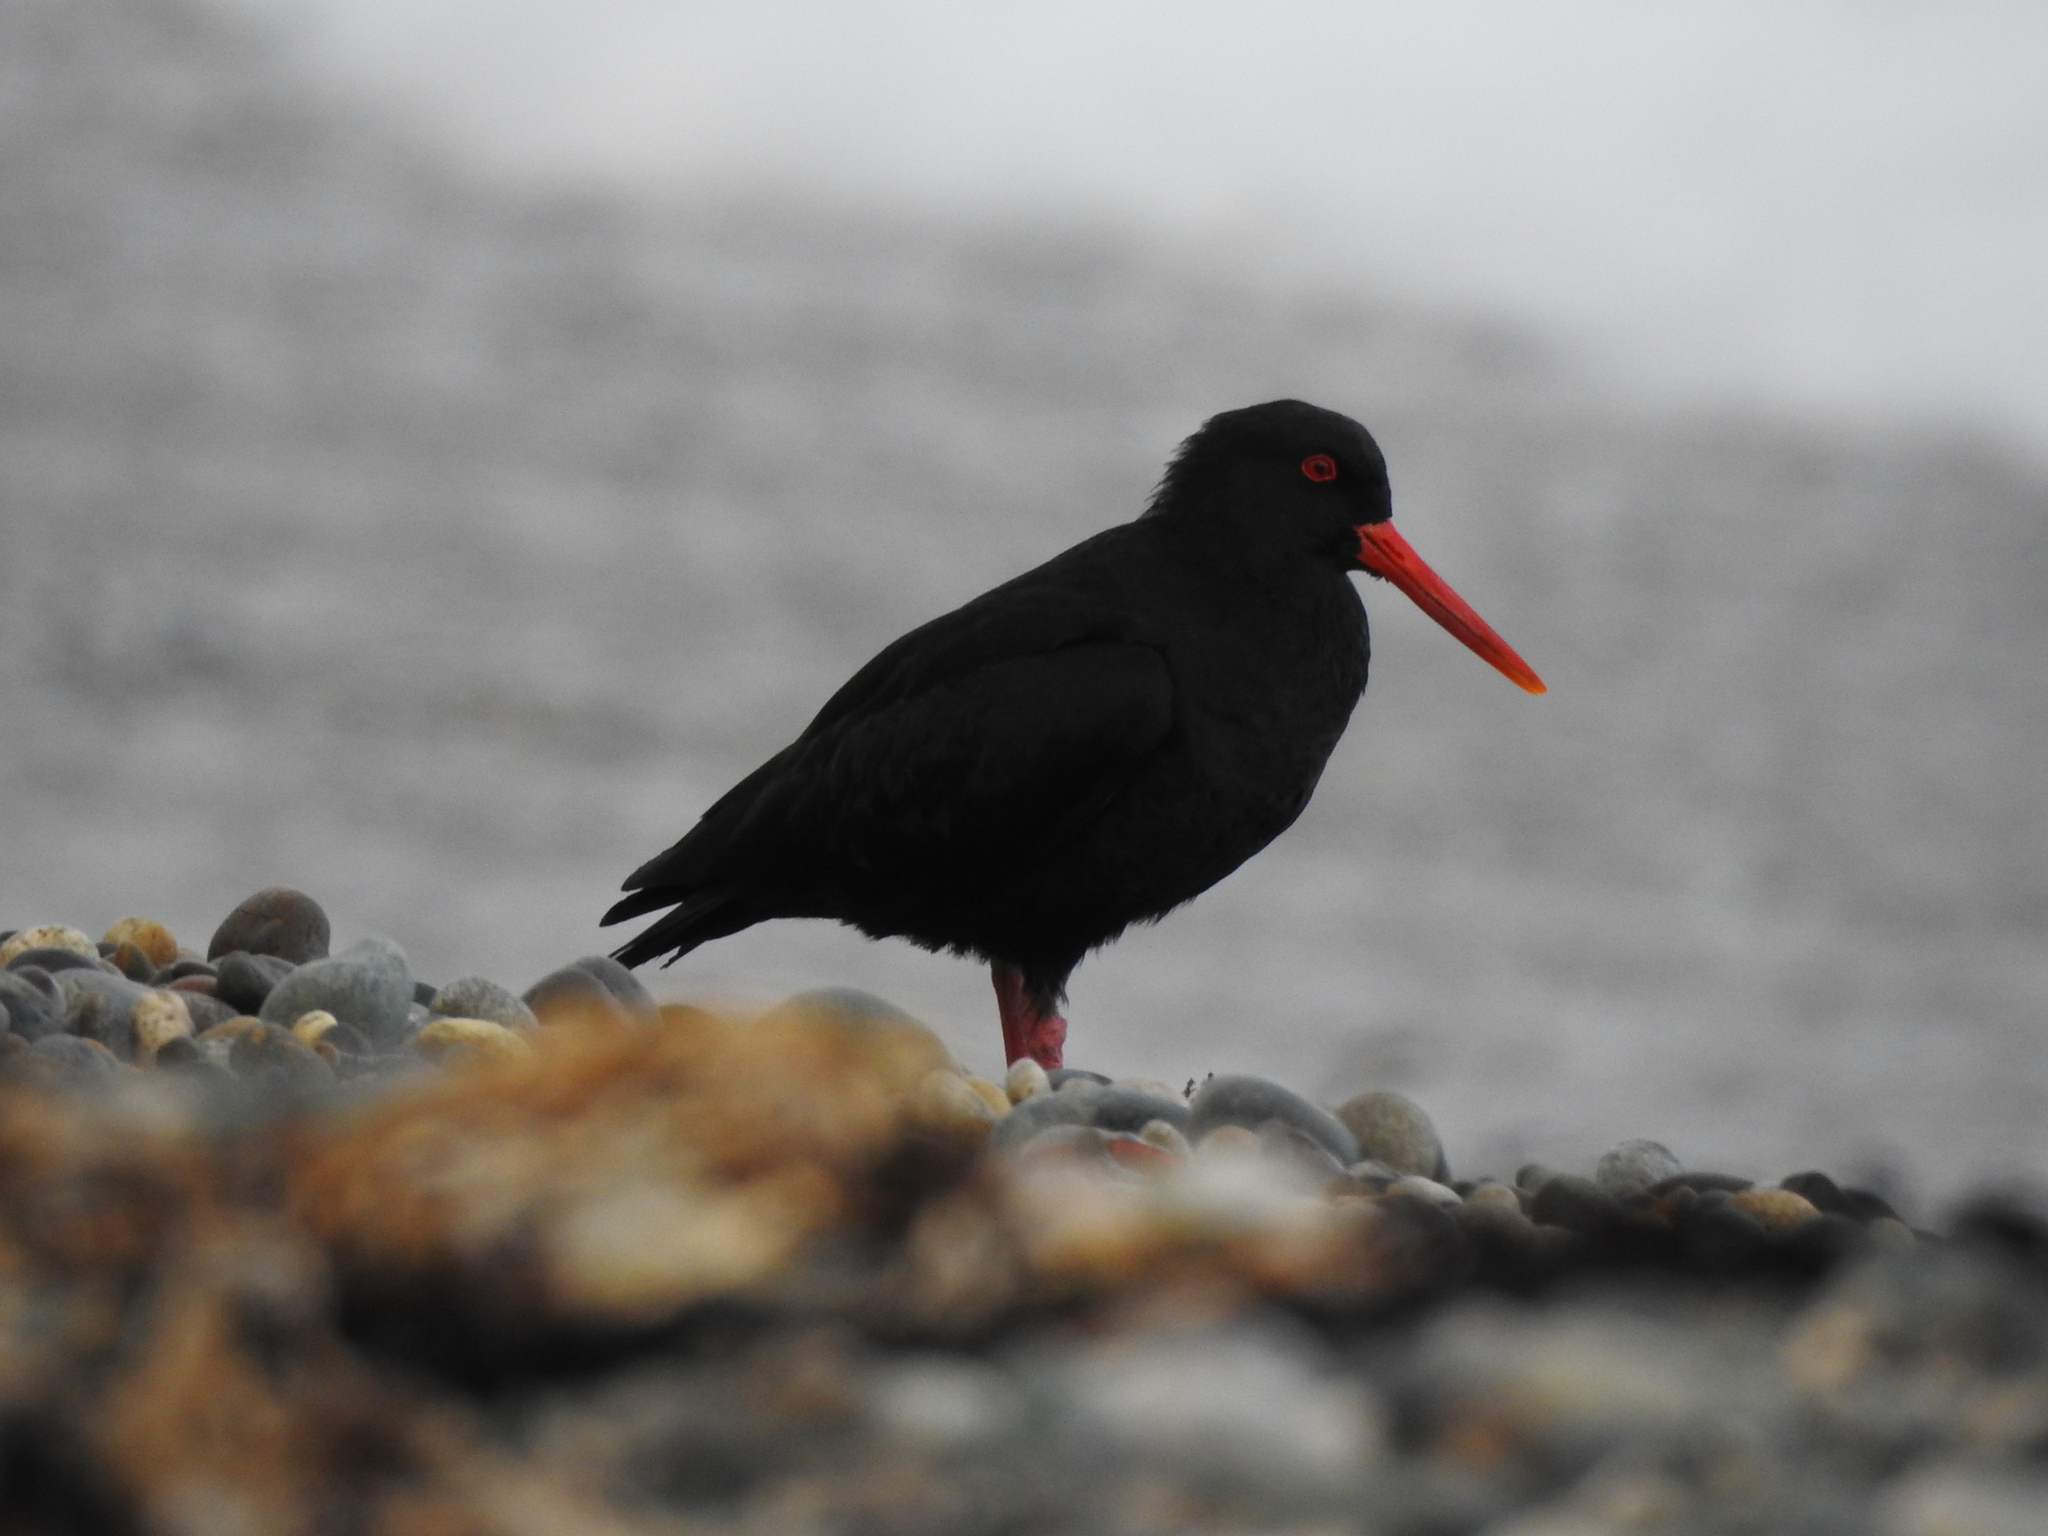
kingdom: Animalia
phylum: Chordata
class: Aves
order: Charadriiformes
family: Haematopodidae
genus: Haematopus
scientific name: Haematopus unicolor
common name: Variable oystercatcher
